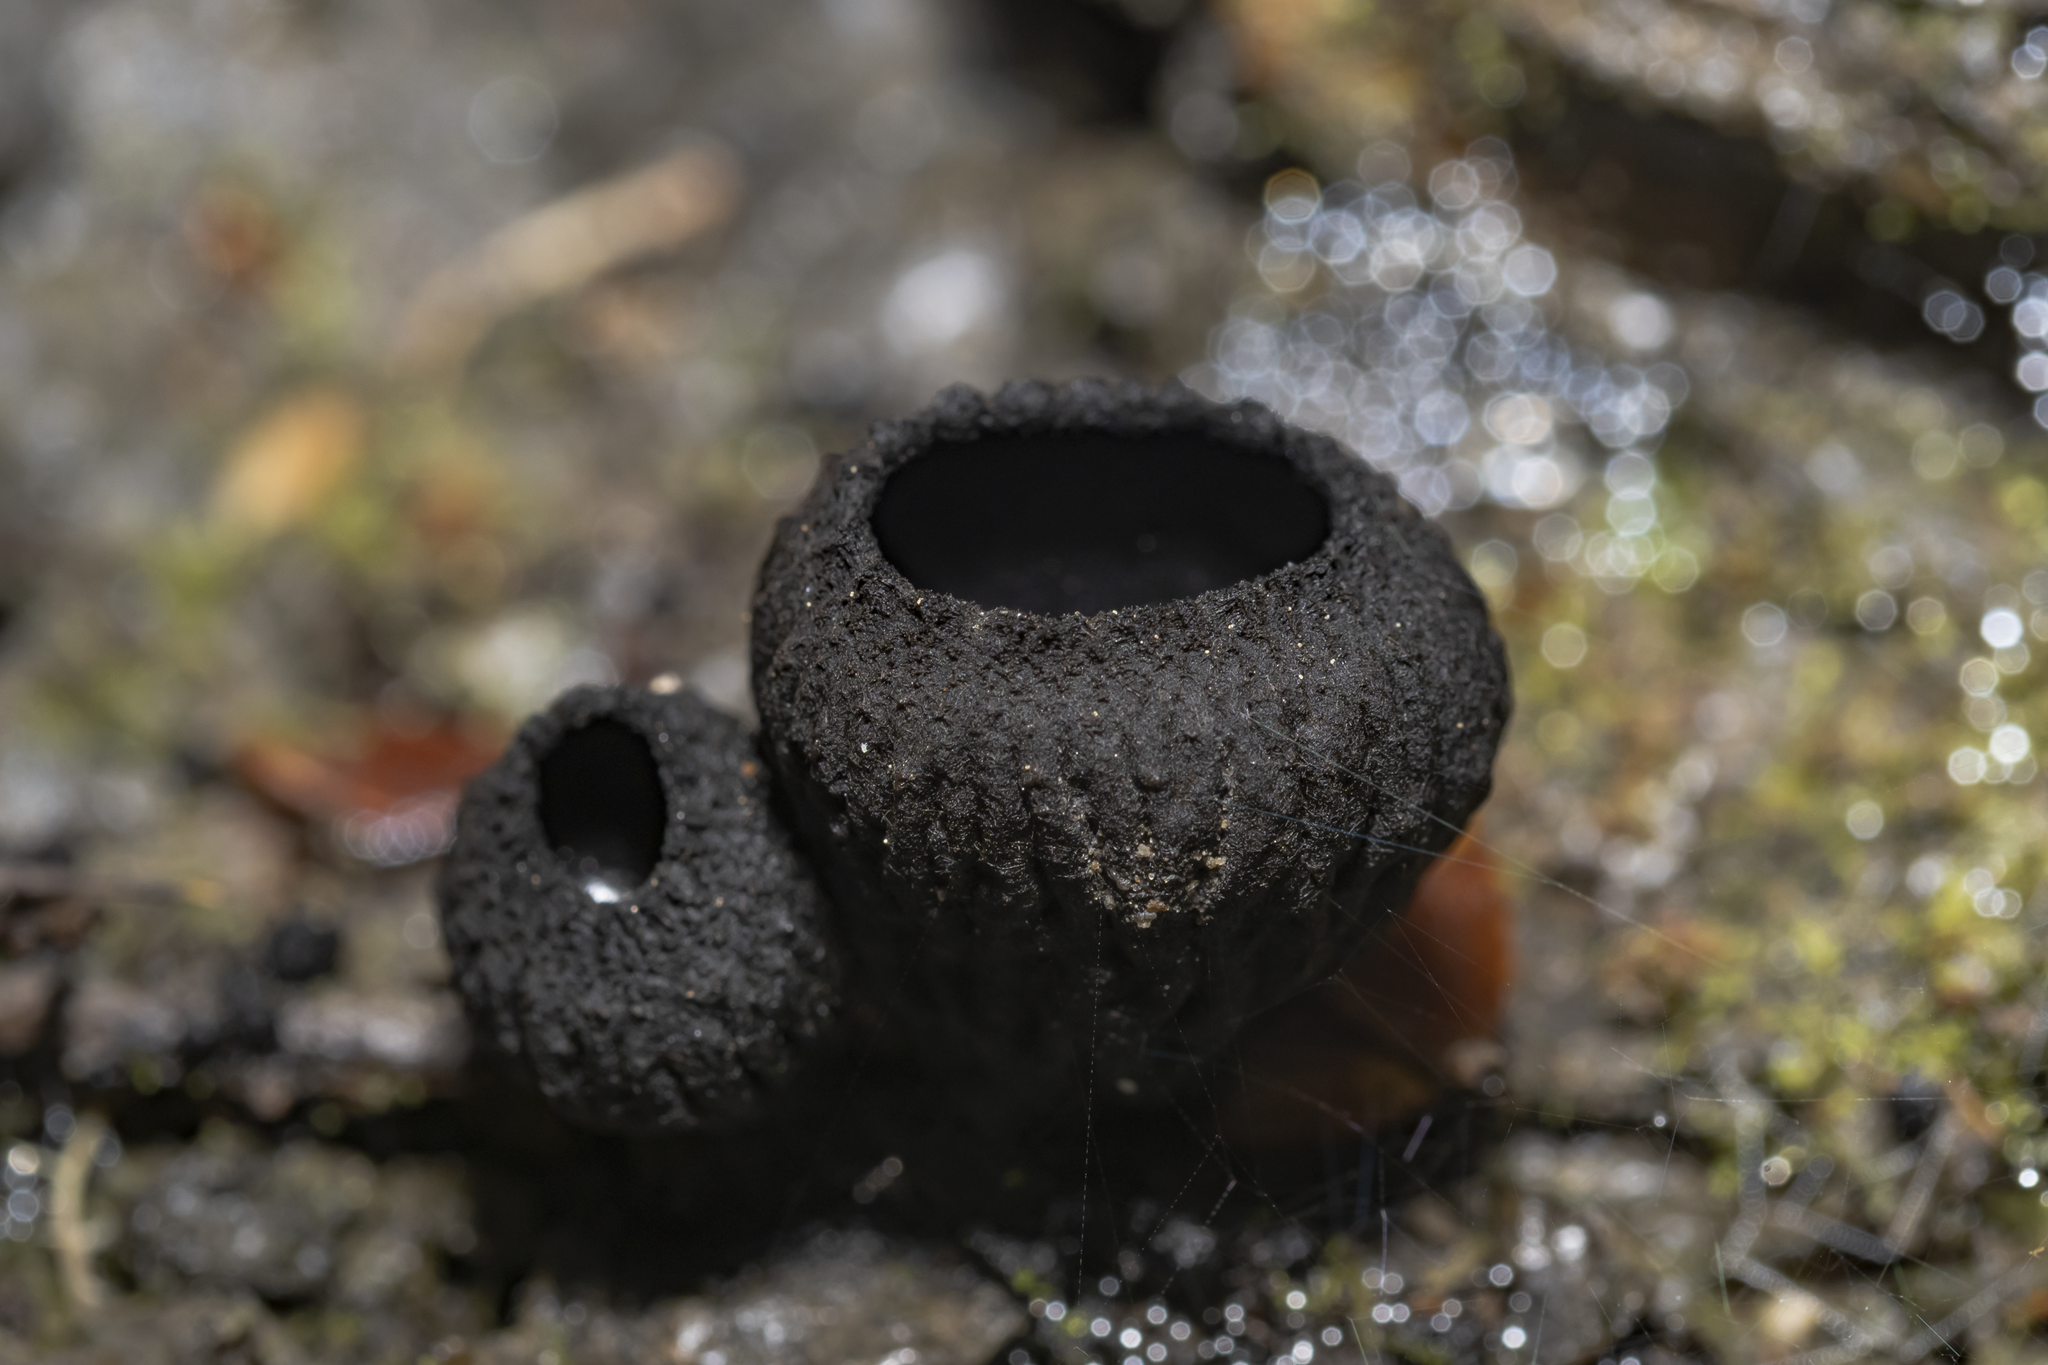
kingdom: Fungi
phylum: Ascomycota
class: Pezizomycetes
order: Pezizales
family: Sarcosomataceae
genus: Plectania
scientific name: Plectania rhytidia
